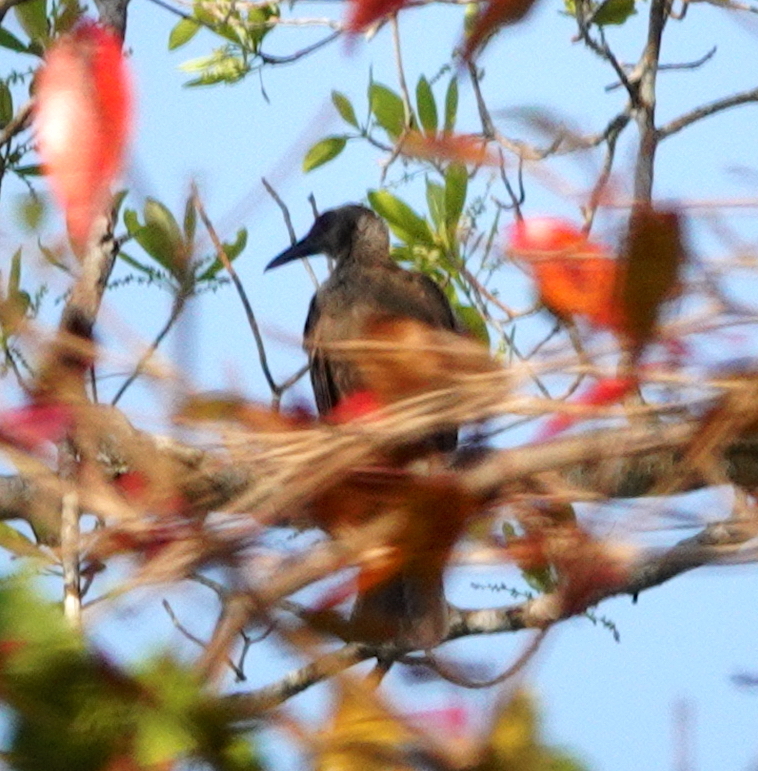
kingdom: Animalia
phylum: Chordata
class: Aves
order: Passeriformes
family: Meliphagidae
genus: Philemon
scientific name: Philemon plumigenis
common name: Tanimbar friarbird
